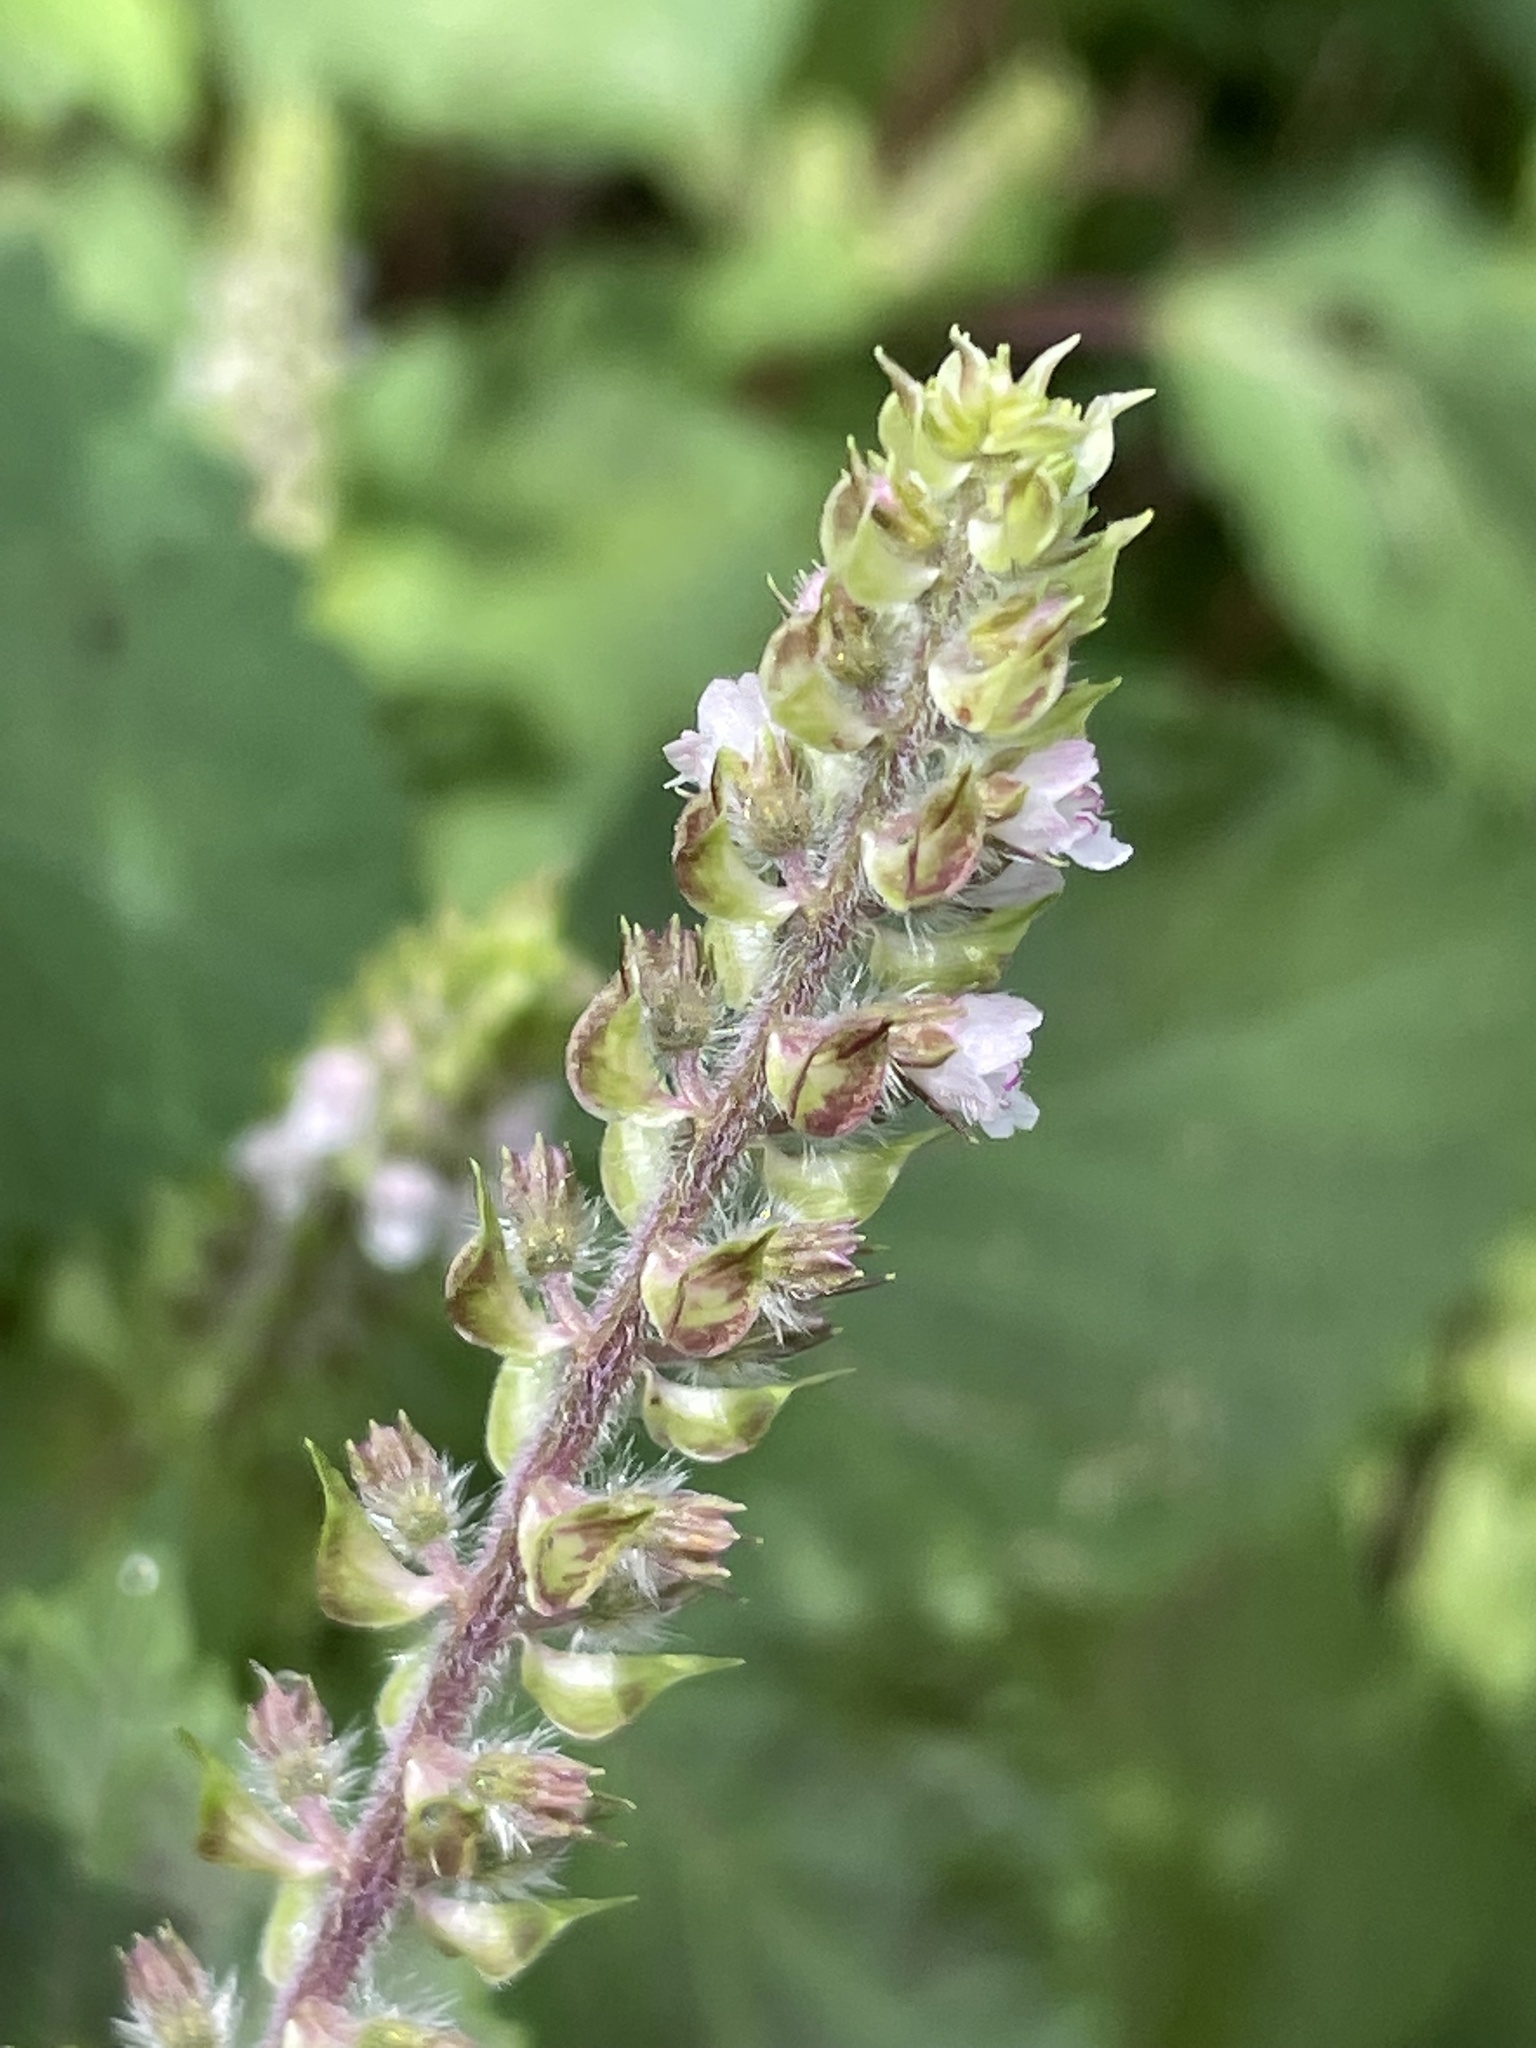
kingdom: Plantae
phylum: Tracheophyta
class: Magnoliopsida
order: Lamiales
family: Lamiaceae
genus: Perilla
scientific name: Perilla frutescens
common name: Perilla
